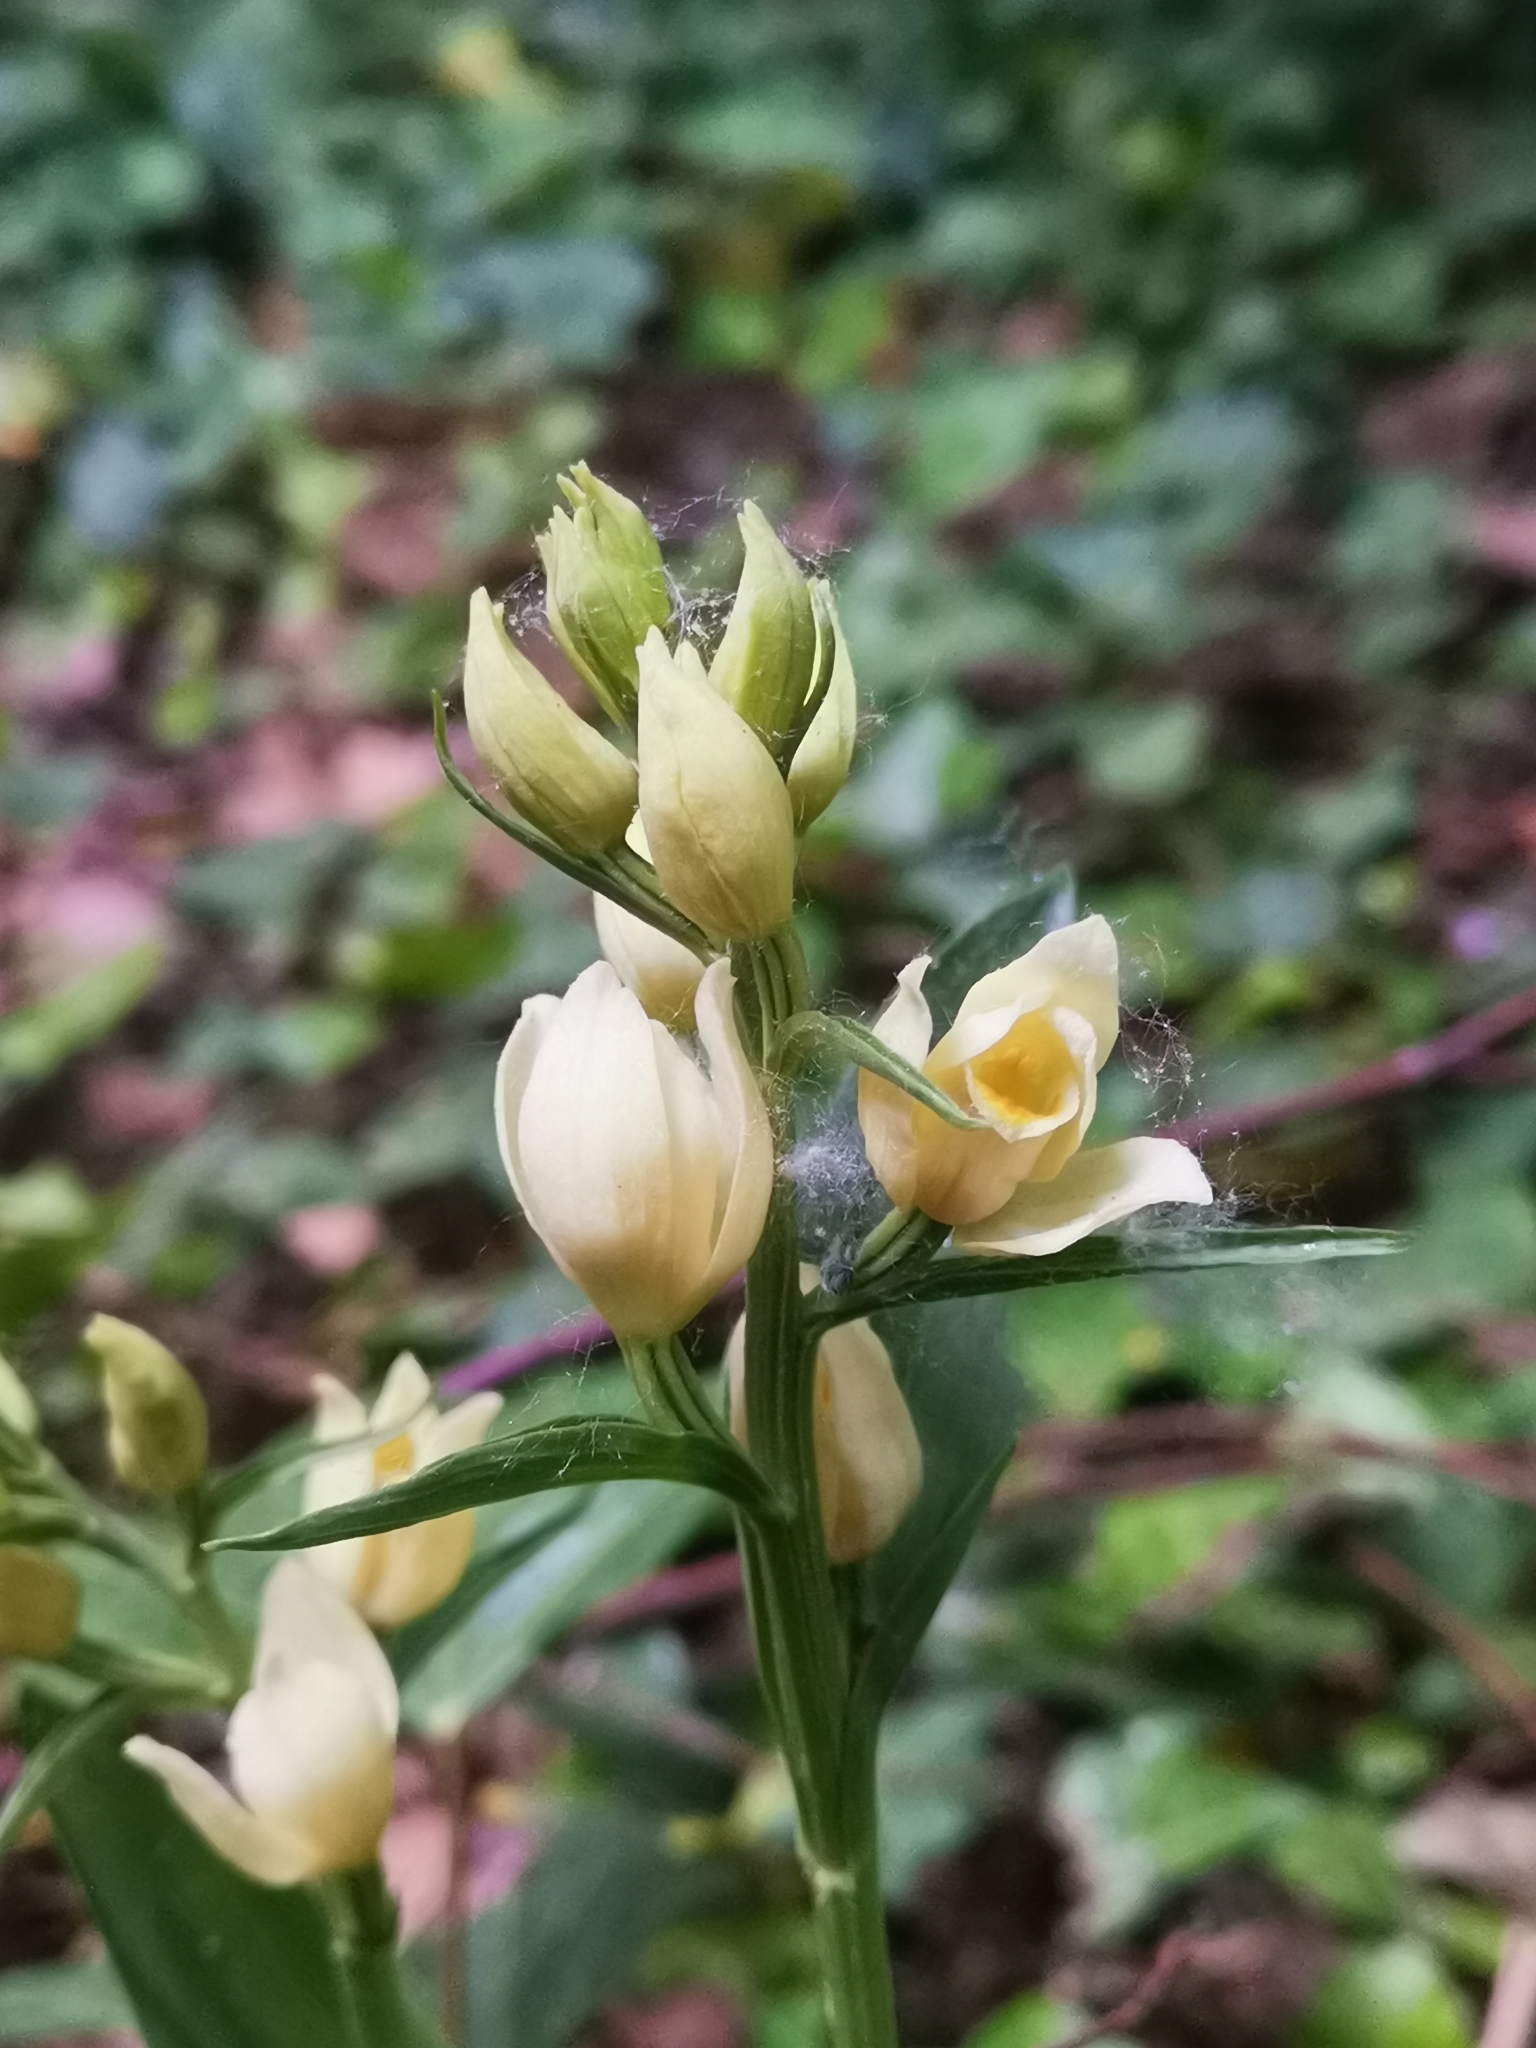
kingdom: Plantae
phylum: Tracheophyta
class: Liliopsida
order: Asparagales
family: Orchidaceae
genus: Cephalanthera
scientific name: Cephalanthera damasonium
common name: White helleborine
